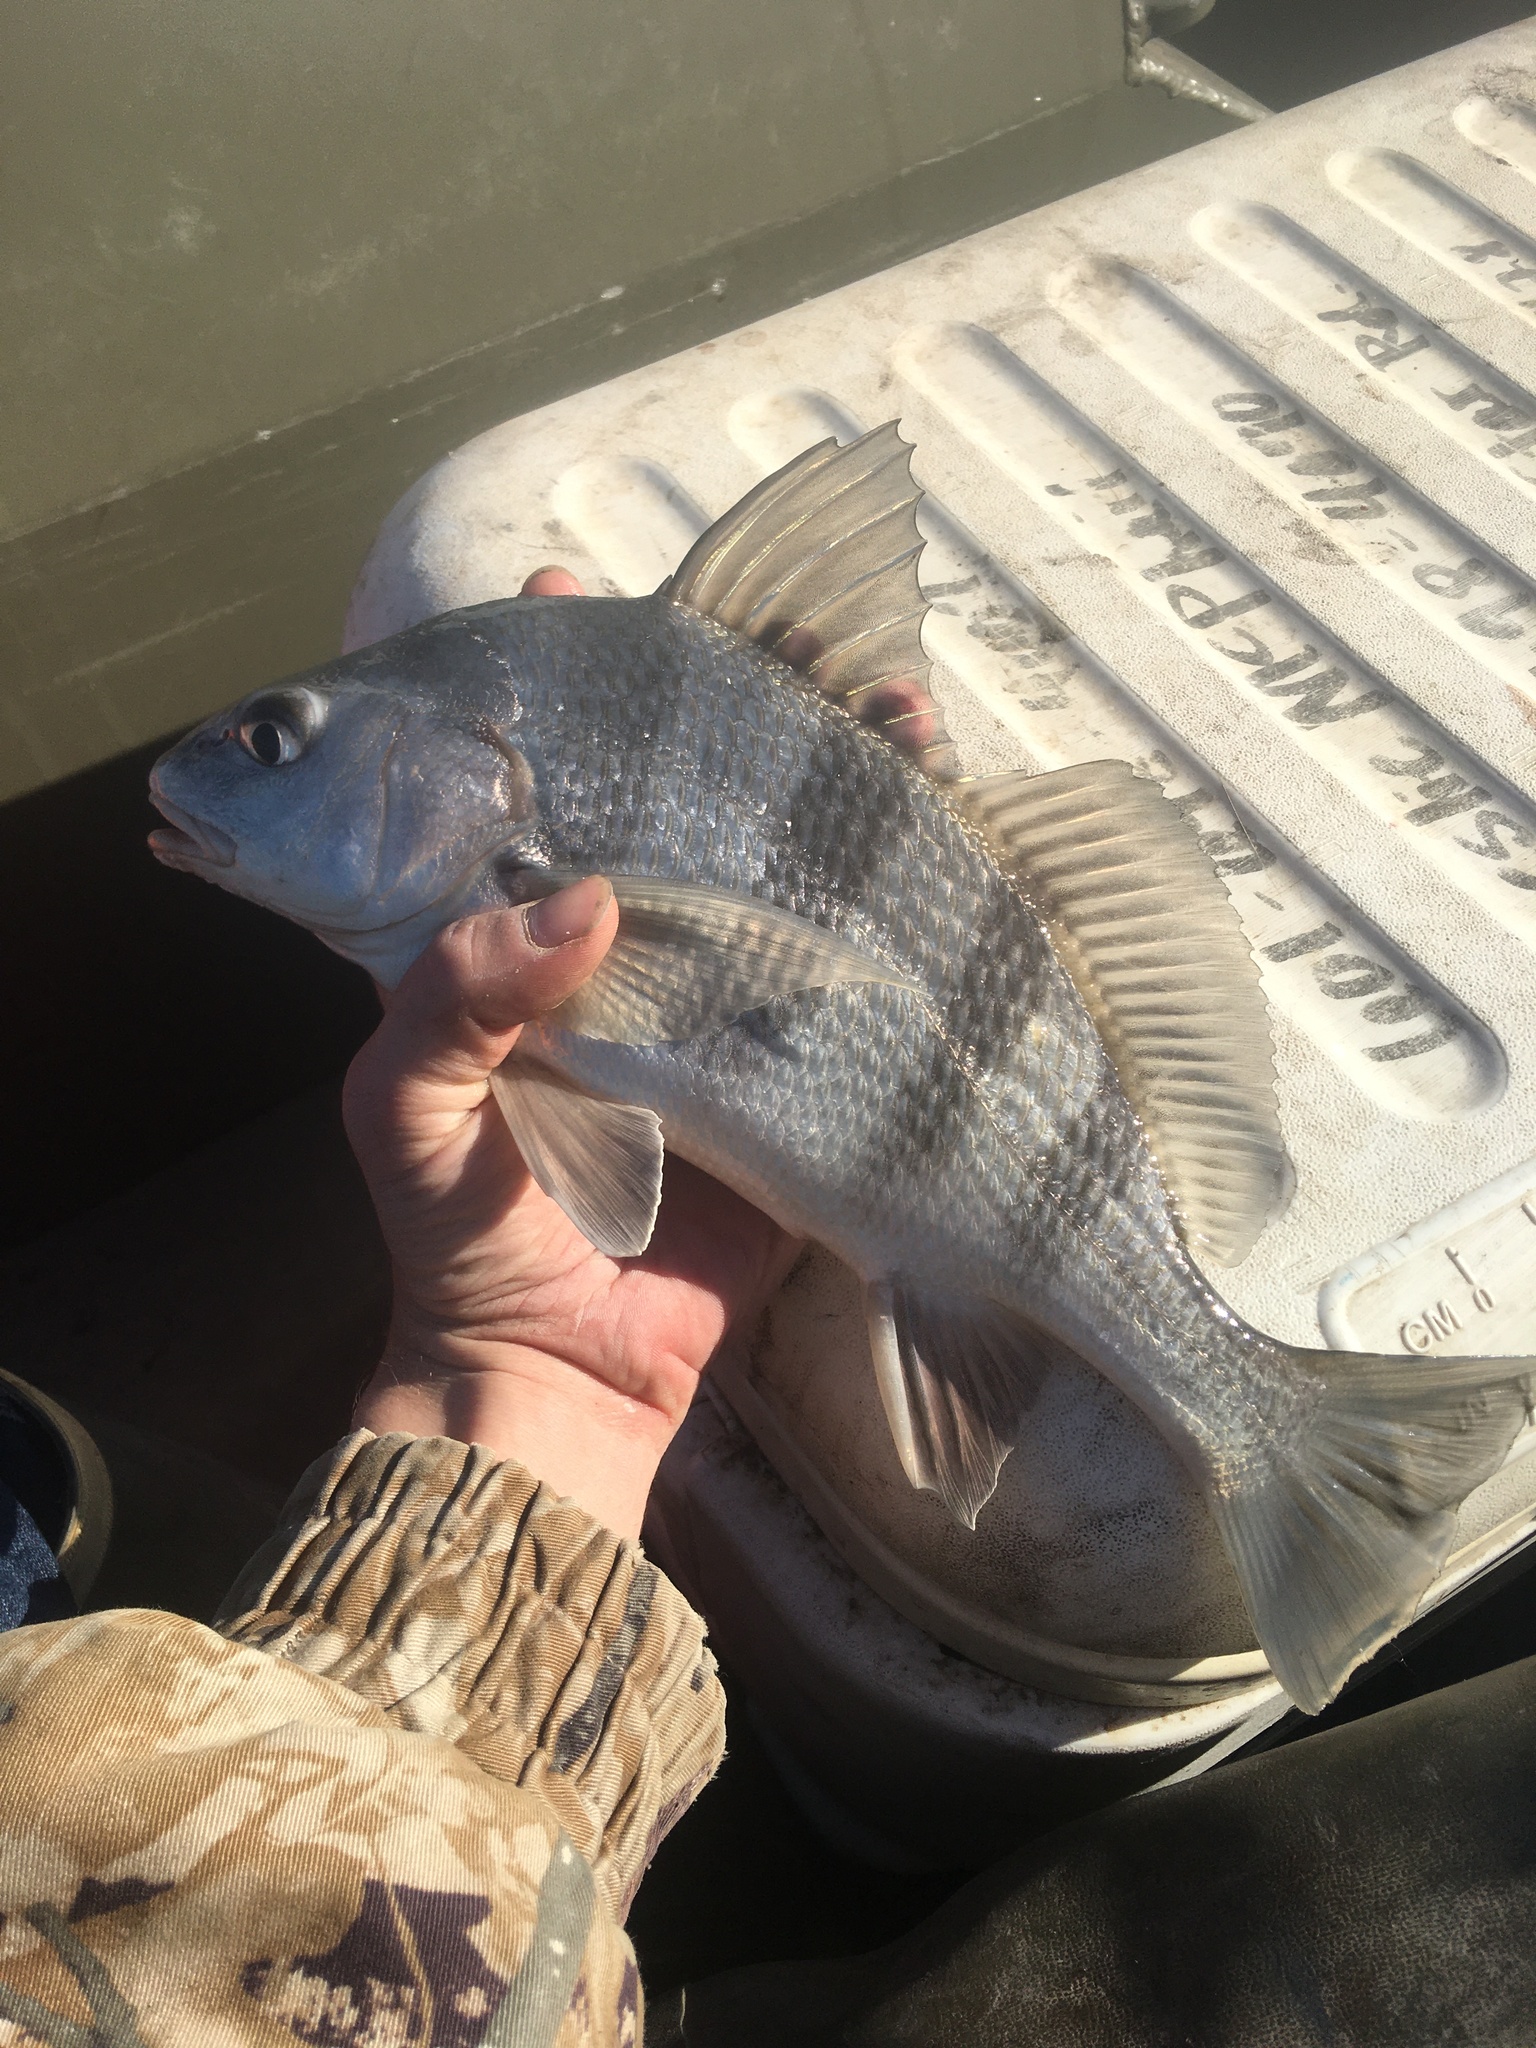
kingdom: Animalia
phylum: Chordata
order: Perciformes
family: Sciaenidae
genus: Pogonias
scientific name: Pogonias cromis
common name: Black drum
